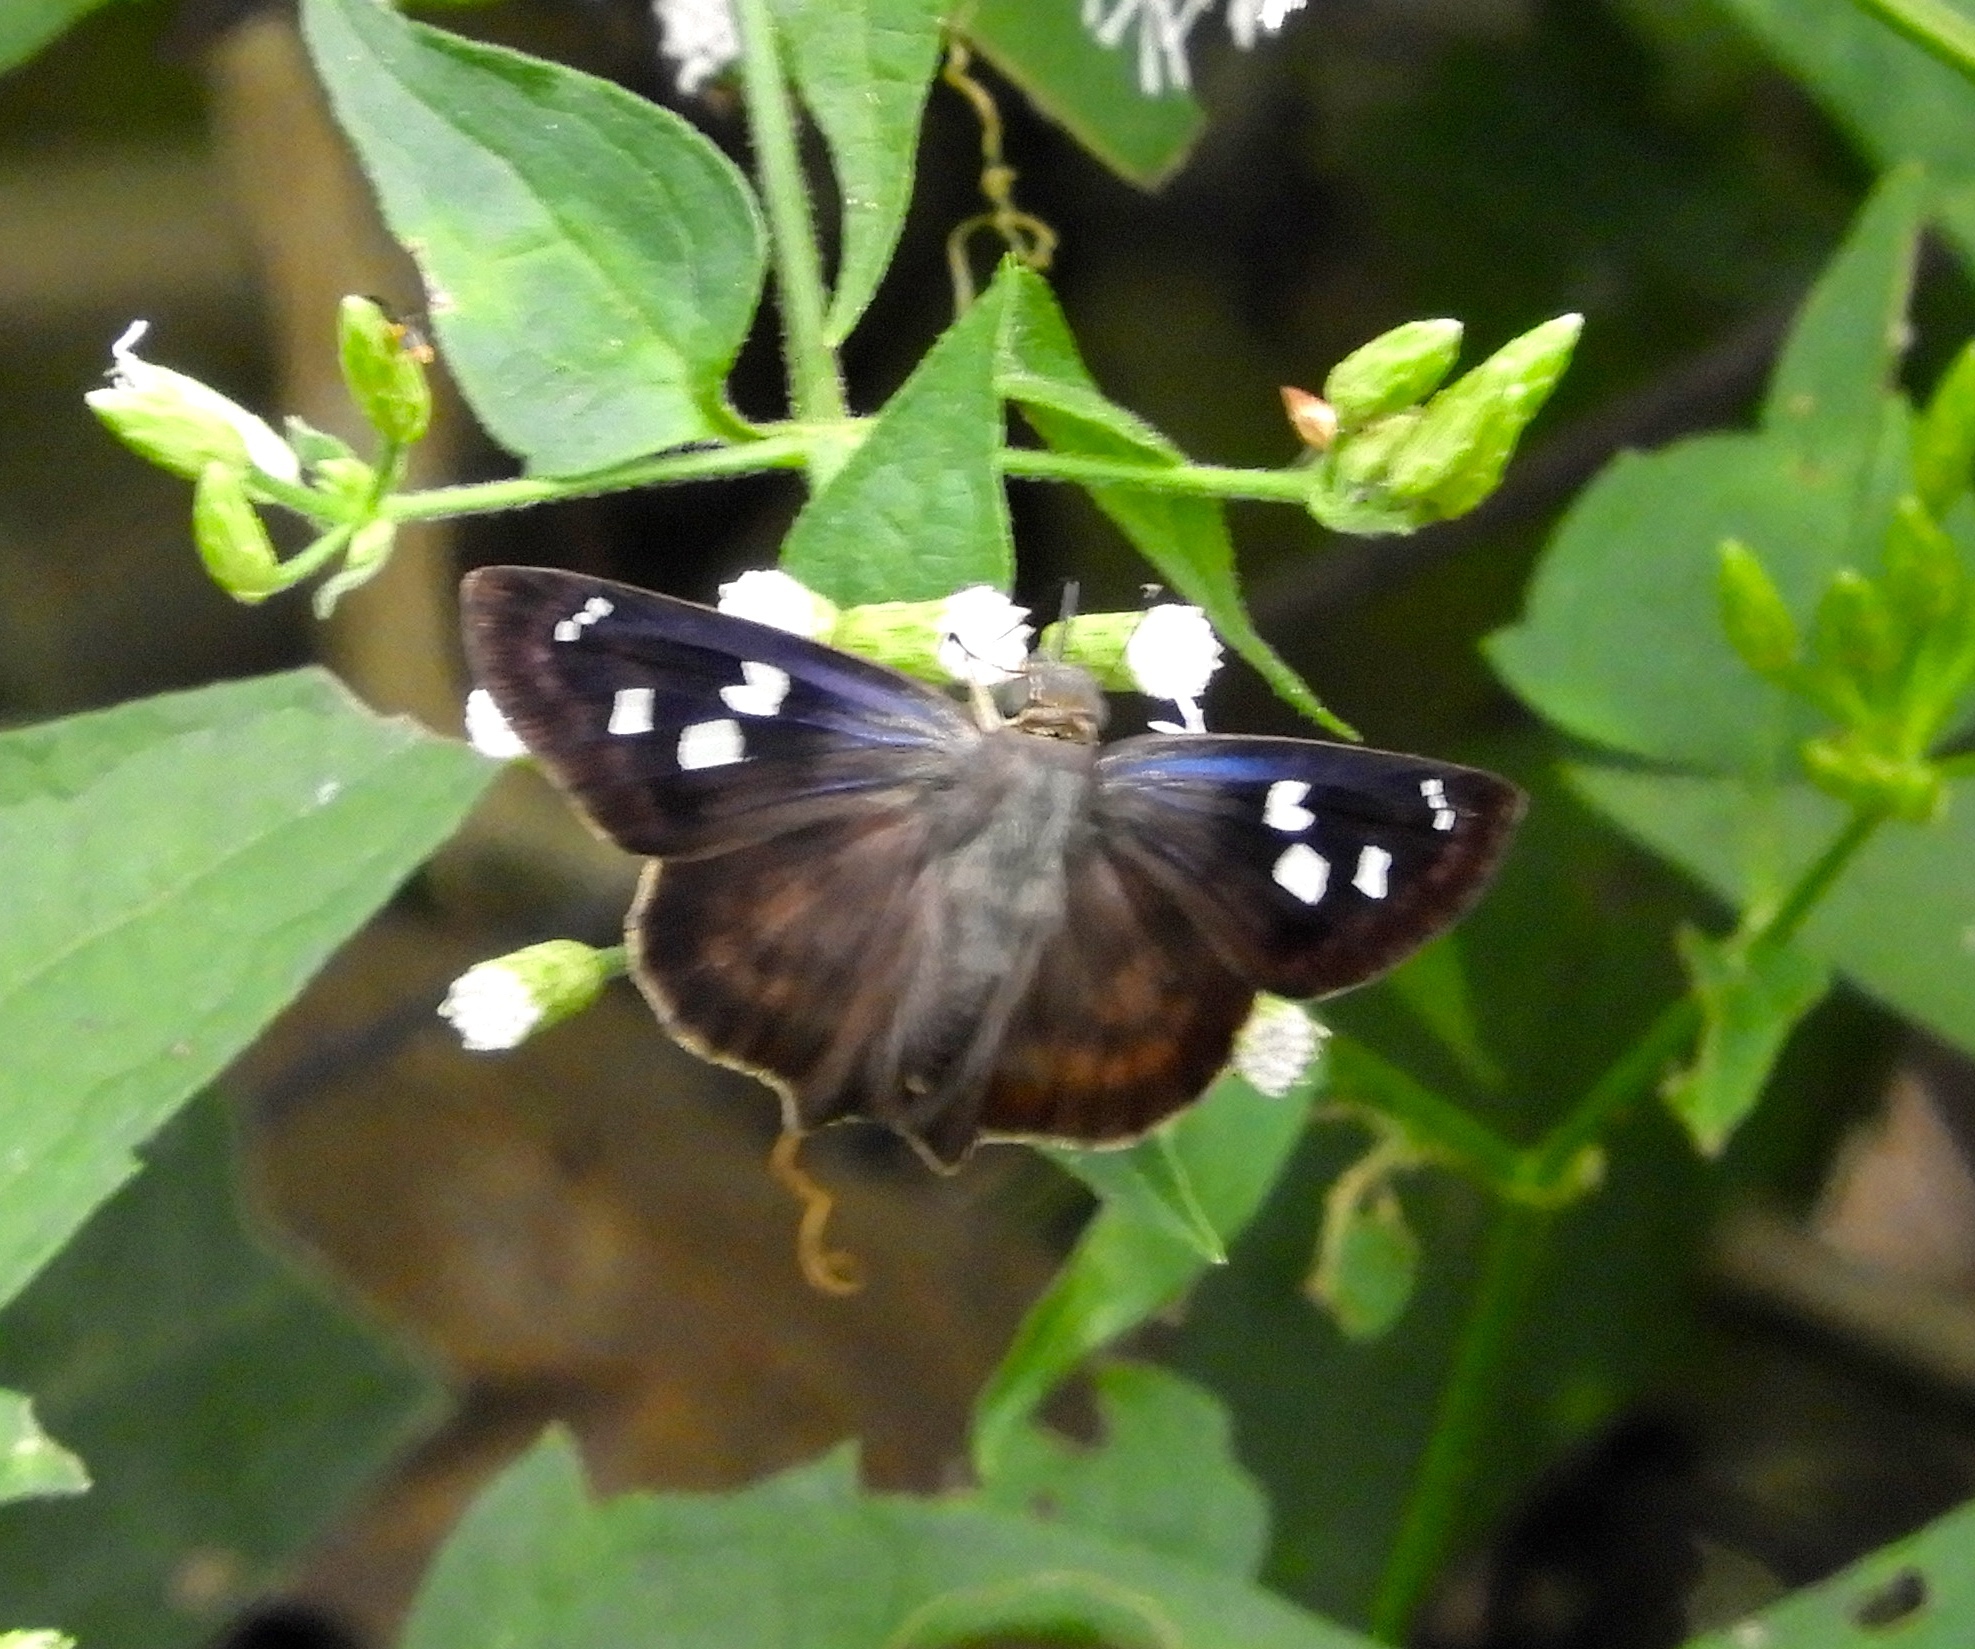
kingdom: Animalia
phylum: Arthropoda
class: Insecta
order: Lepidoptera
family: Hesperiidae
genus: Polygonus
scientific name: Polygonus leo
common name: Hammoch skipper
